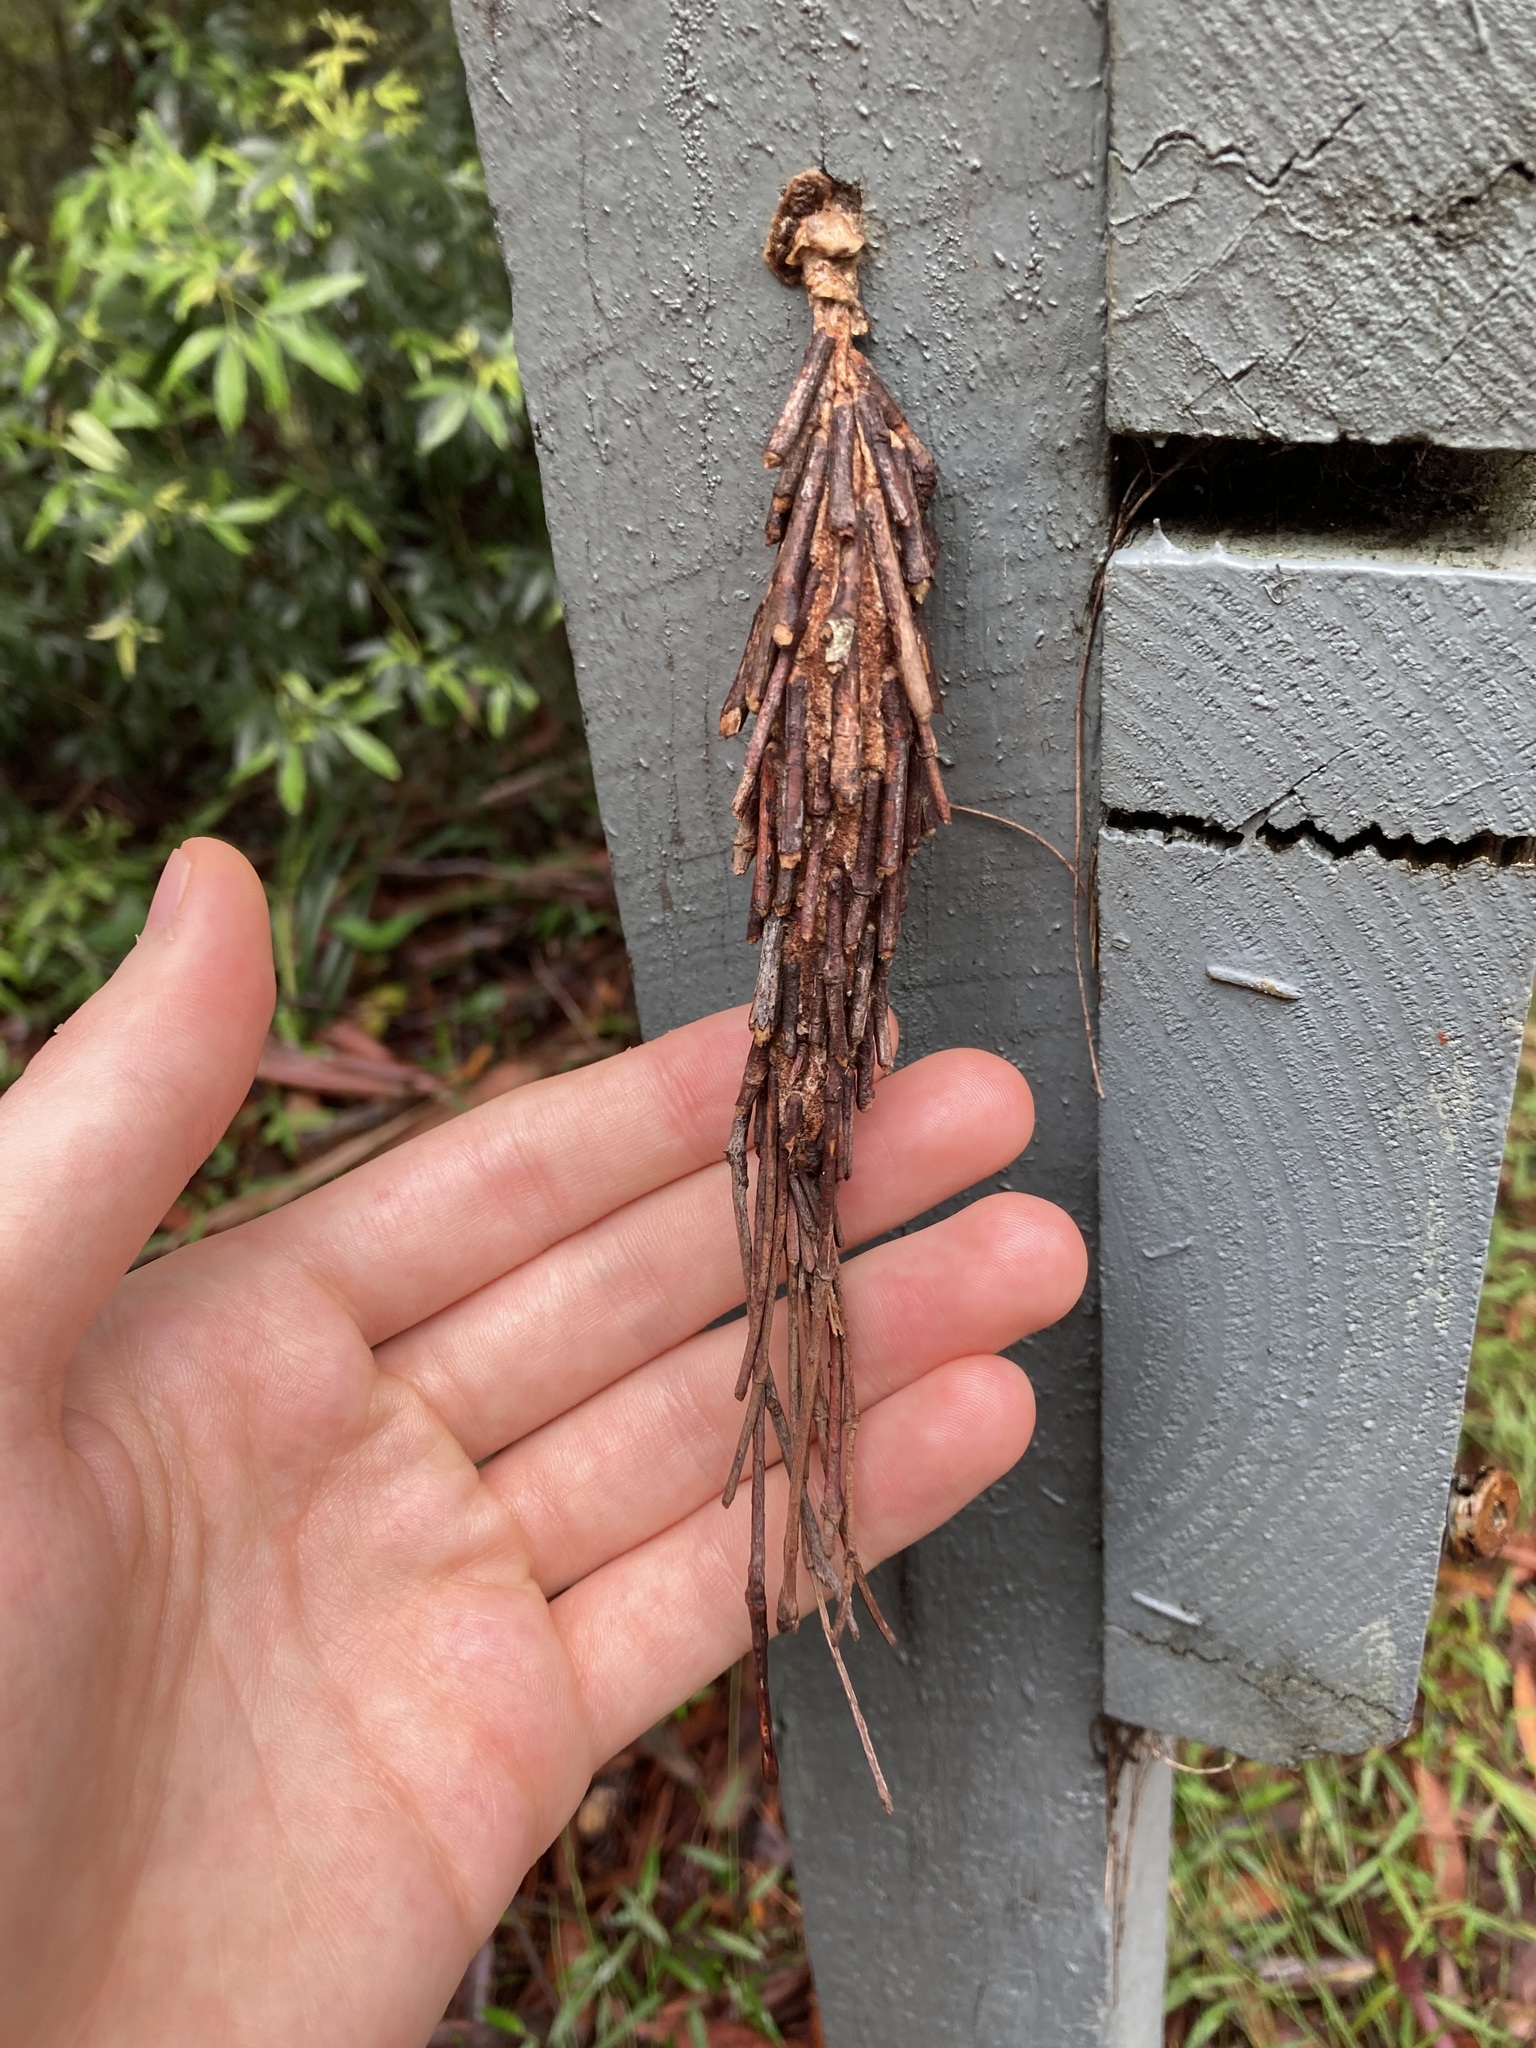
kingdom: Animalia
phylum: Arthropoda
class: Insecta
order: Lepidoptera
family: Psychidae
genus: Metura
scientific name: Metura elongatus
